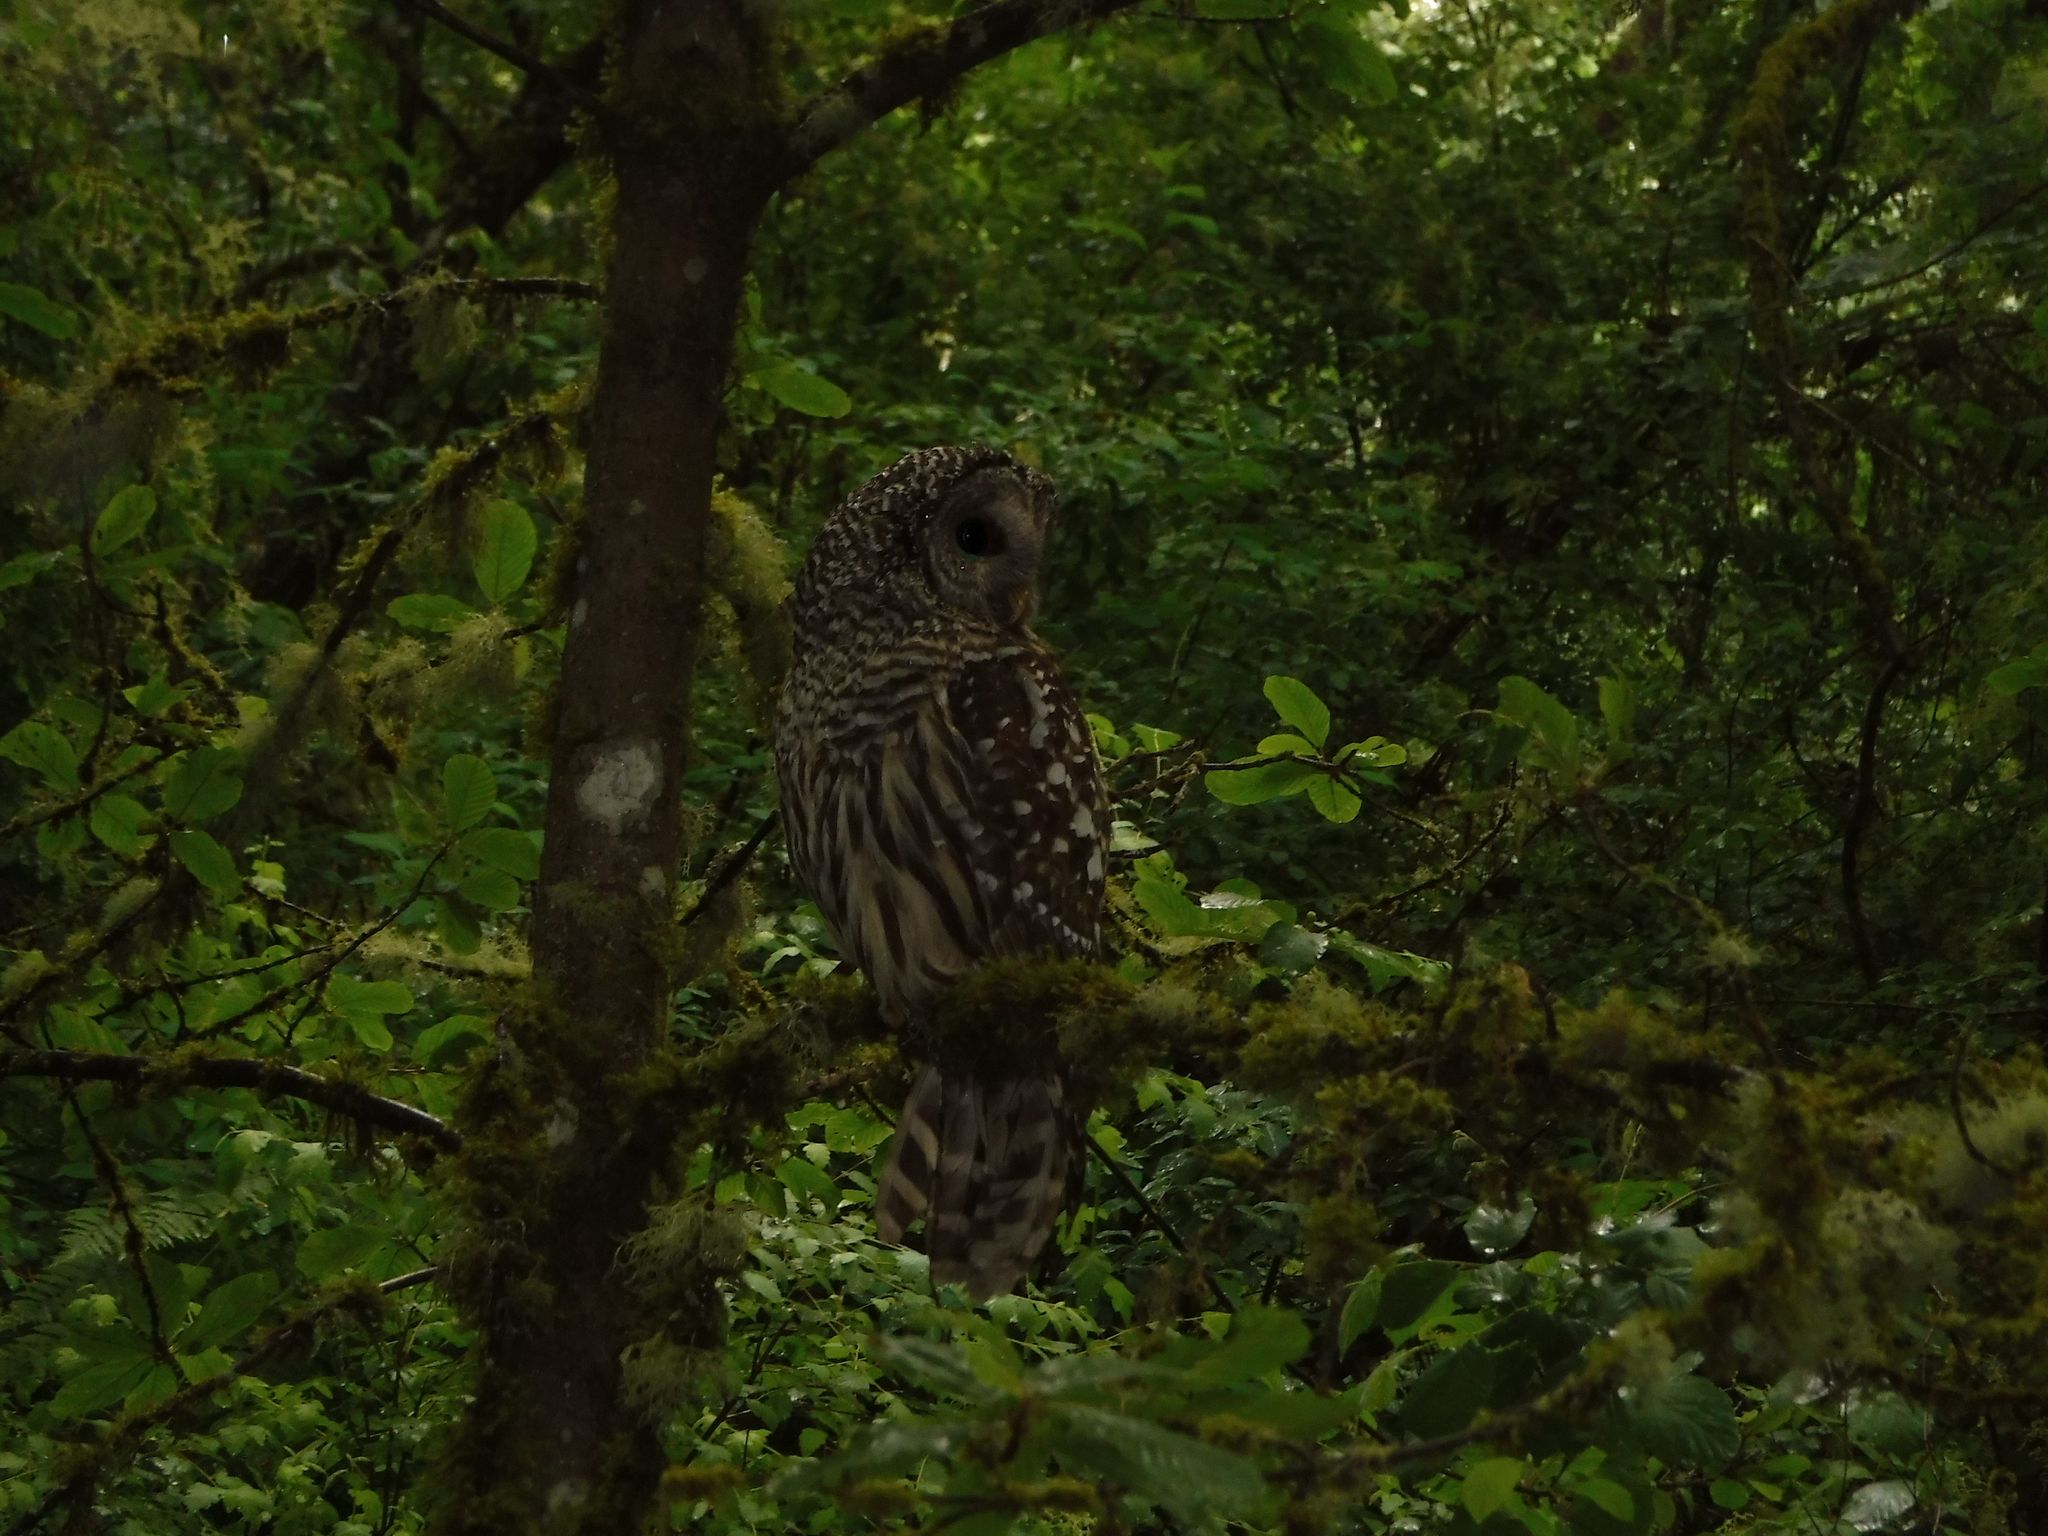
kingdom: Animalia
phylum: Chordata
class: Aves
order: Strigiformes
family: Strigidae
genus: Strix
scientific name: Strix varia
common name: Barred owl
